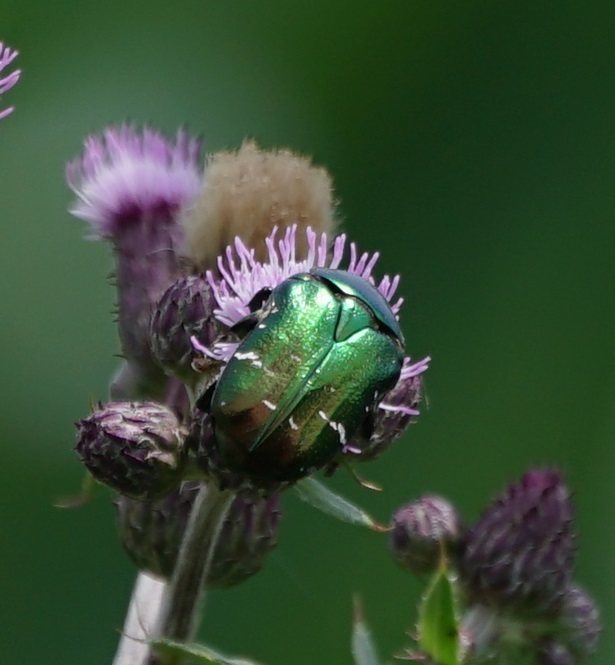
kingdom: Animalia
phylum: Arthropoda
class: Insecta
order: Coleoptera
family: Scarabaeidae
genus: Cetonia
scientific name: Cetonia aurata
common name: Rose chafer
